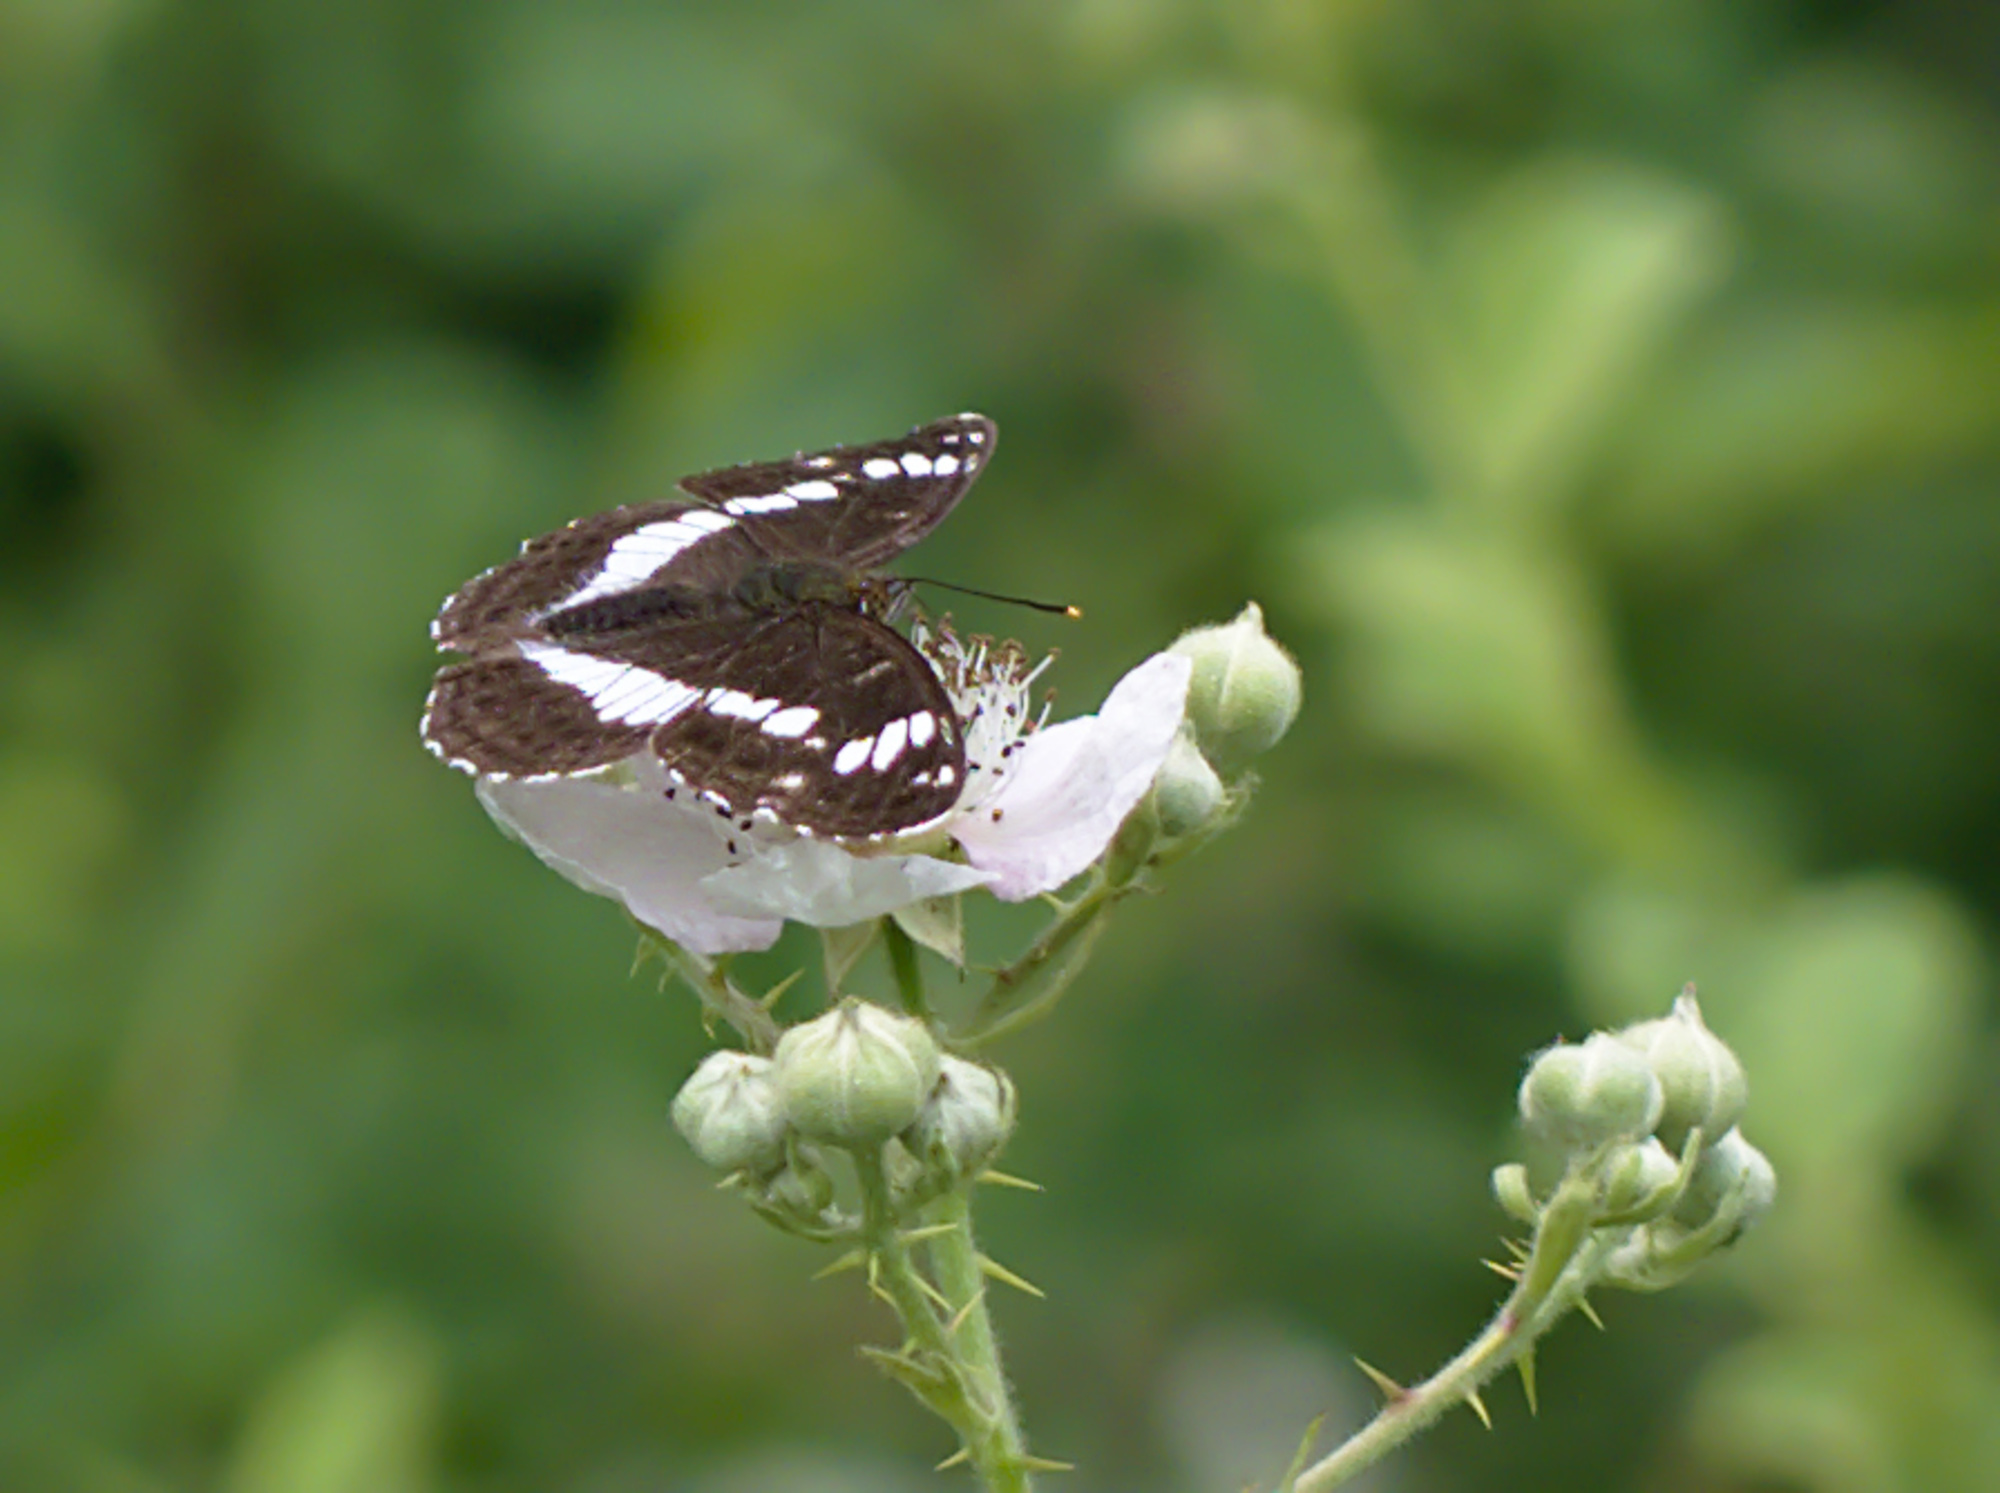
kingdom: Animalia
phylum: Arthropoda
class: Insecta
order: Lepidoptera
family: Nymphalidae
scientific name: Nymphalidae
